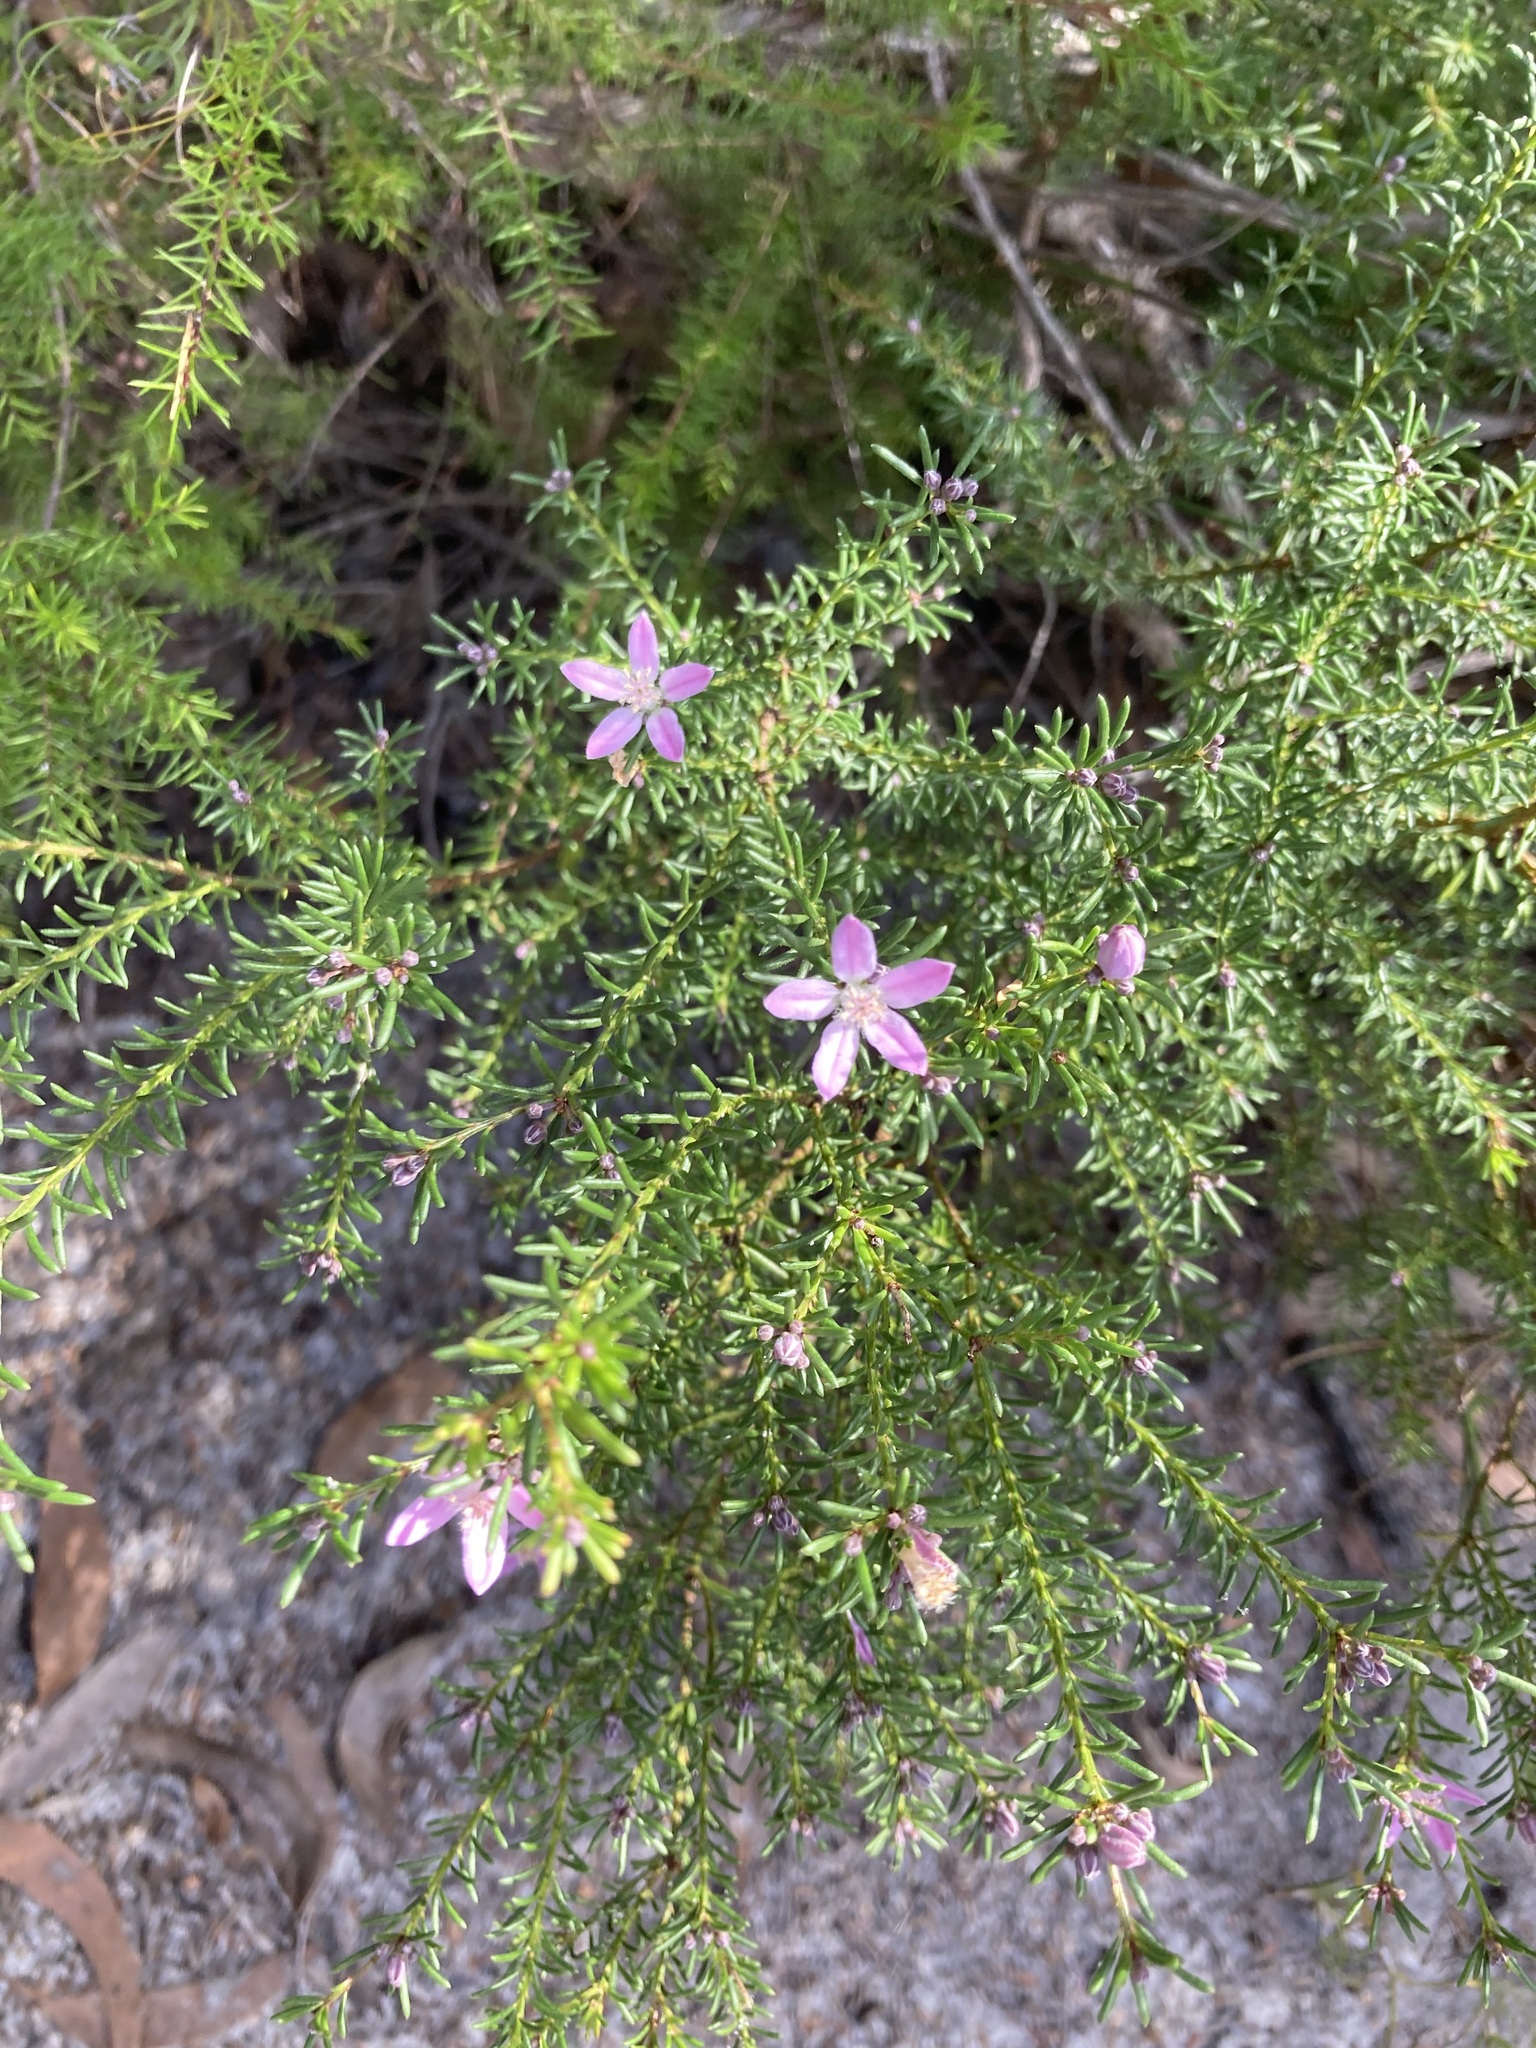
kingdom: Plantae
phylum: Tracheophyta
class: Magnoliopsida
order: Sapindales
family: Rutaceae
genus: Philotheca
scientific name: Philotheca salsolifolia
